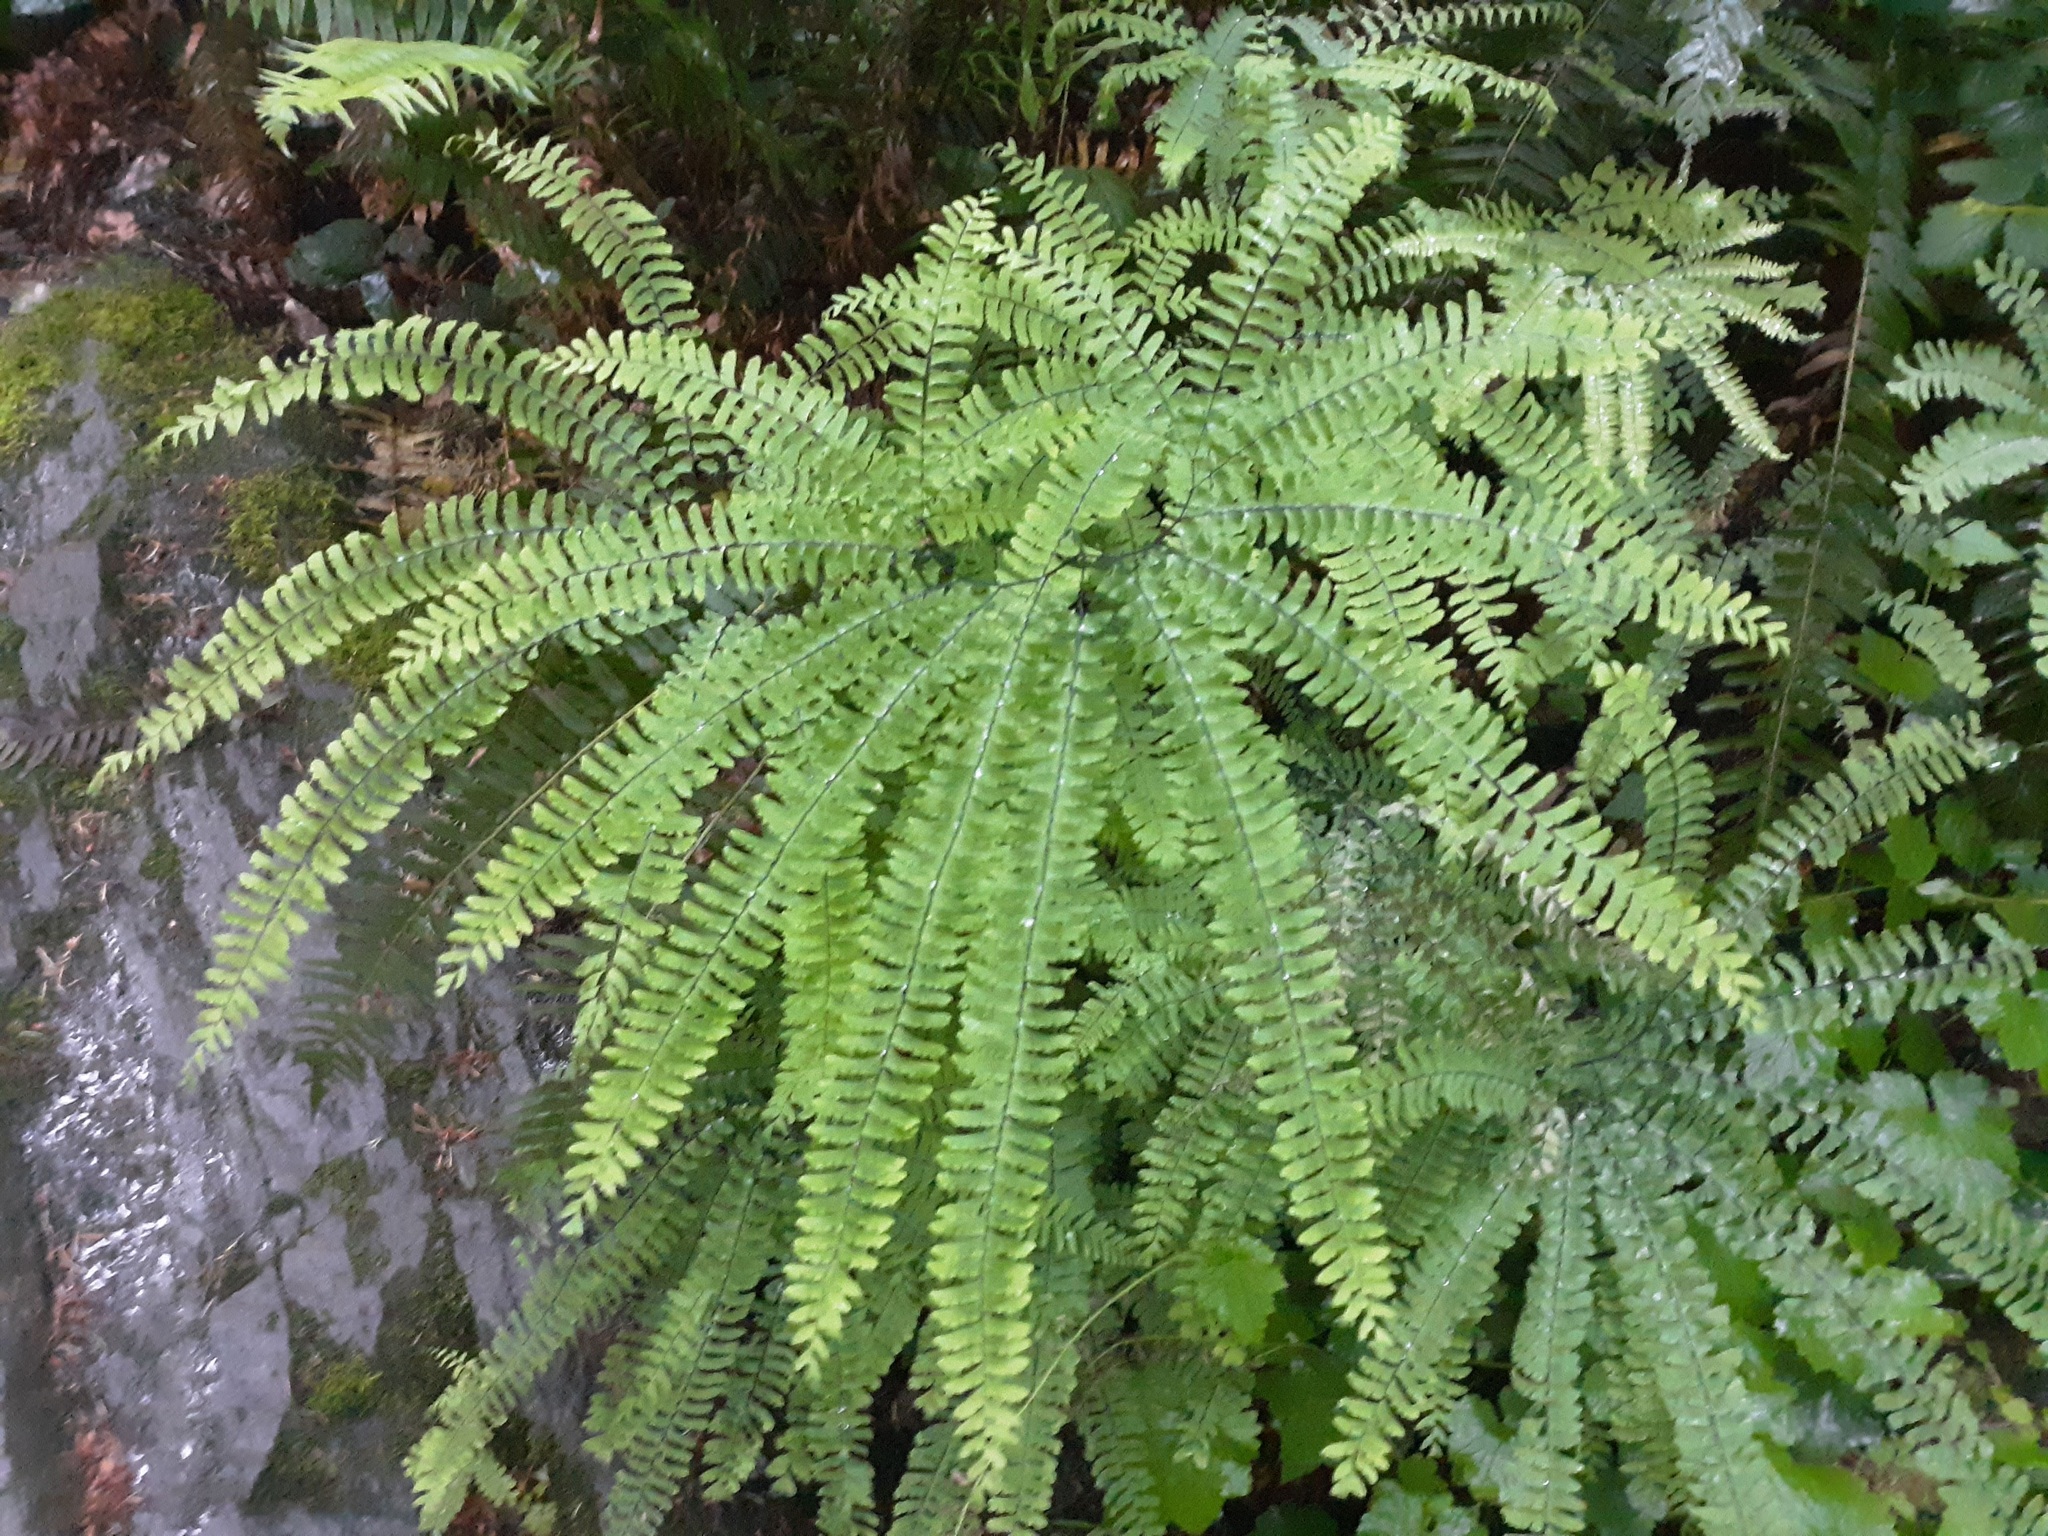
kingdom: Plantae
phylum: Tracheophyta
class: Polypodiopsida
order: Polypodiales
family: Pteridaceae
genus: Adiantum
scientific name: Adiantum aleuticum
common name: Aleutian maidenhair fern
